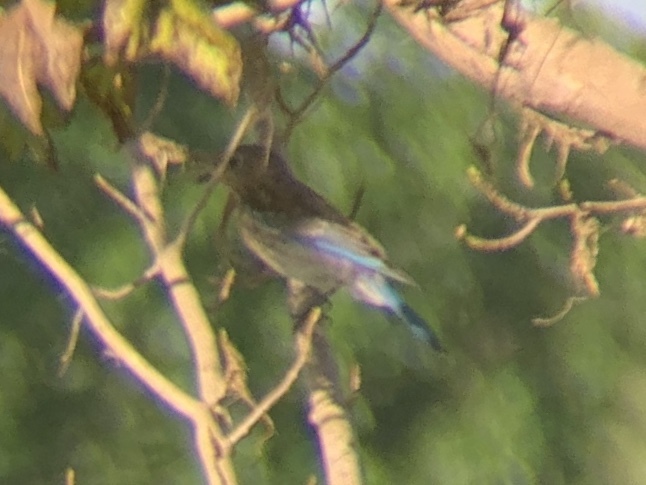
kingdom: Animalia
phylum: Chordata
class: Aves
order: Passeriformes
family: Turdidae
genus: Sialia
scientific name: Sialia sialis
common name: Eastern bluebird
